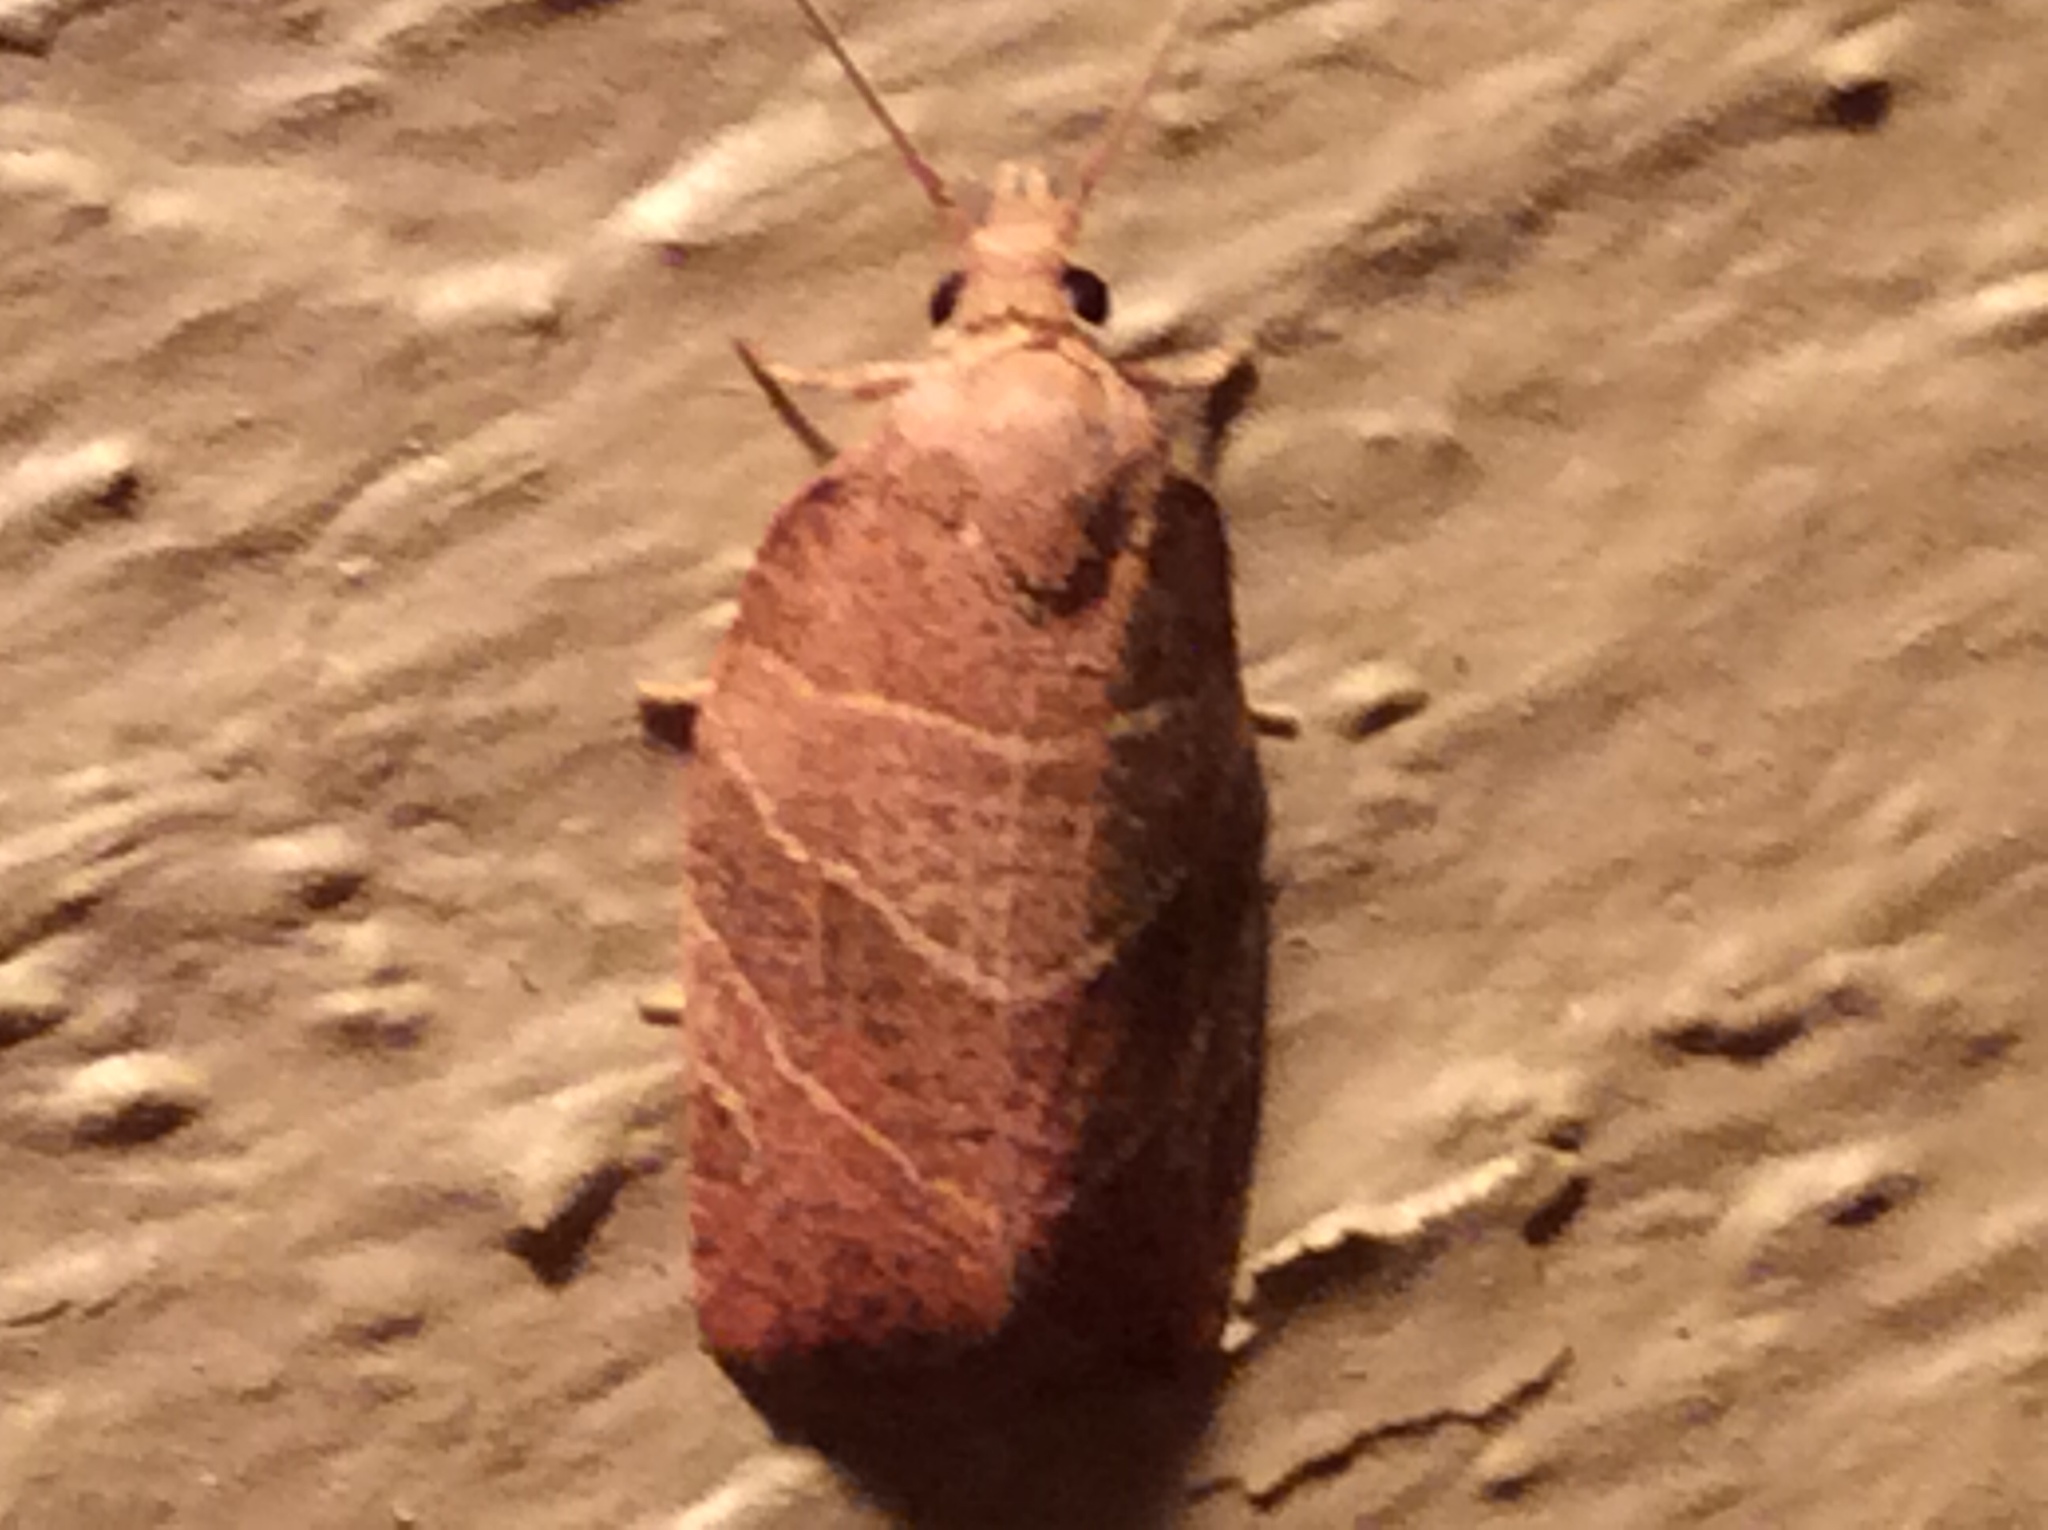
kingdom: Animalia
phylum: Arthropoda
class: Insecta
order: Lepidoptera
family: Tortricidae
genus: Pandemis
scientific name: Pandemis limitata
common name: Three-lined leafroller moth
